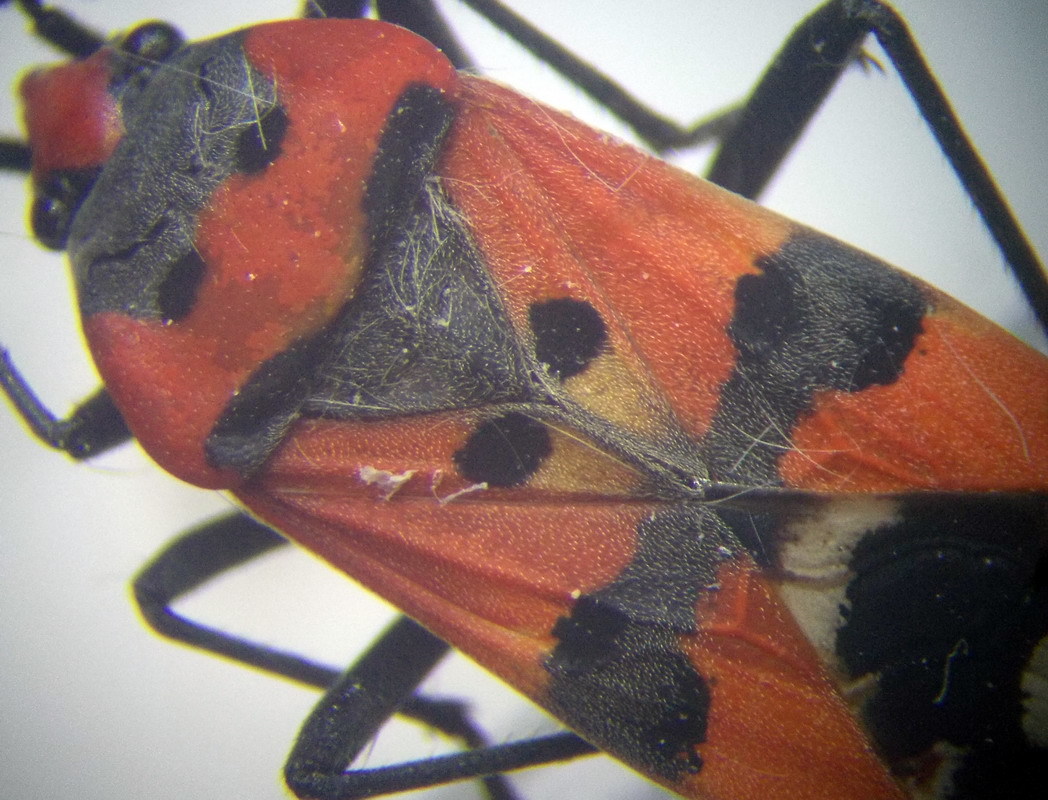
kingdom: Animalia
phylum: Arthropoda
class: Insecta
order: Hemiptera
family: Lygaeidae
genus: Lygaeus
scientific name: Lygaeus simulans
